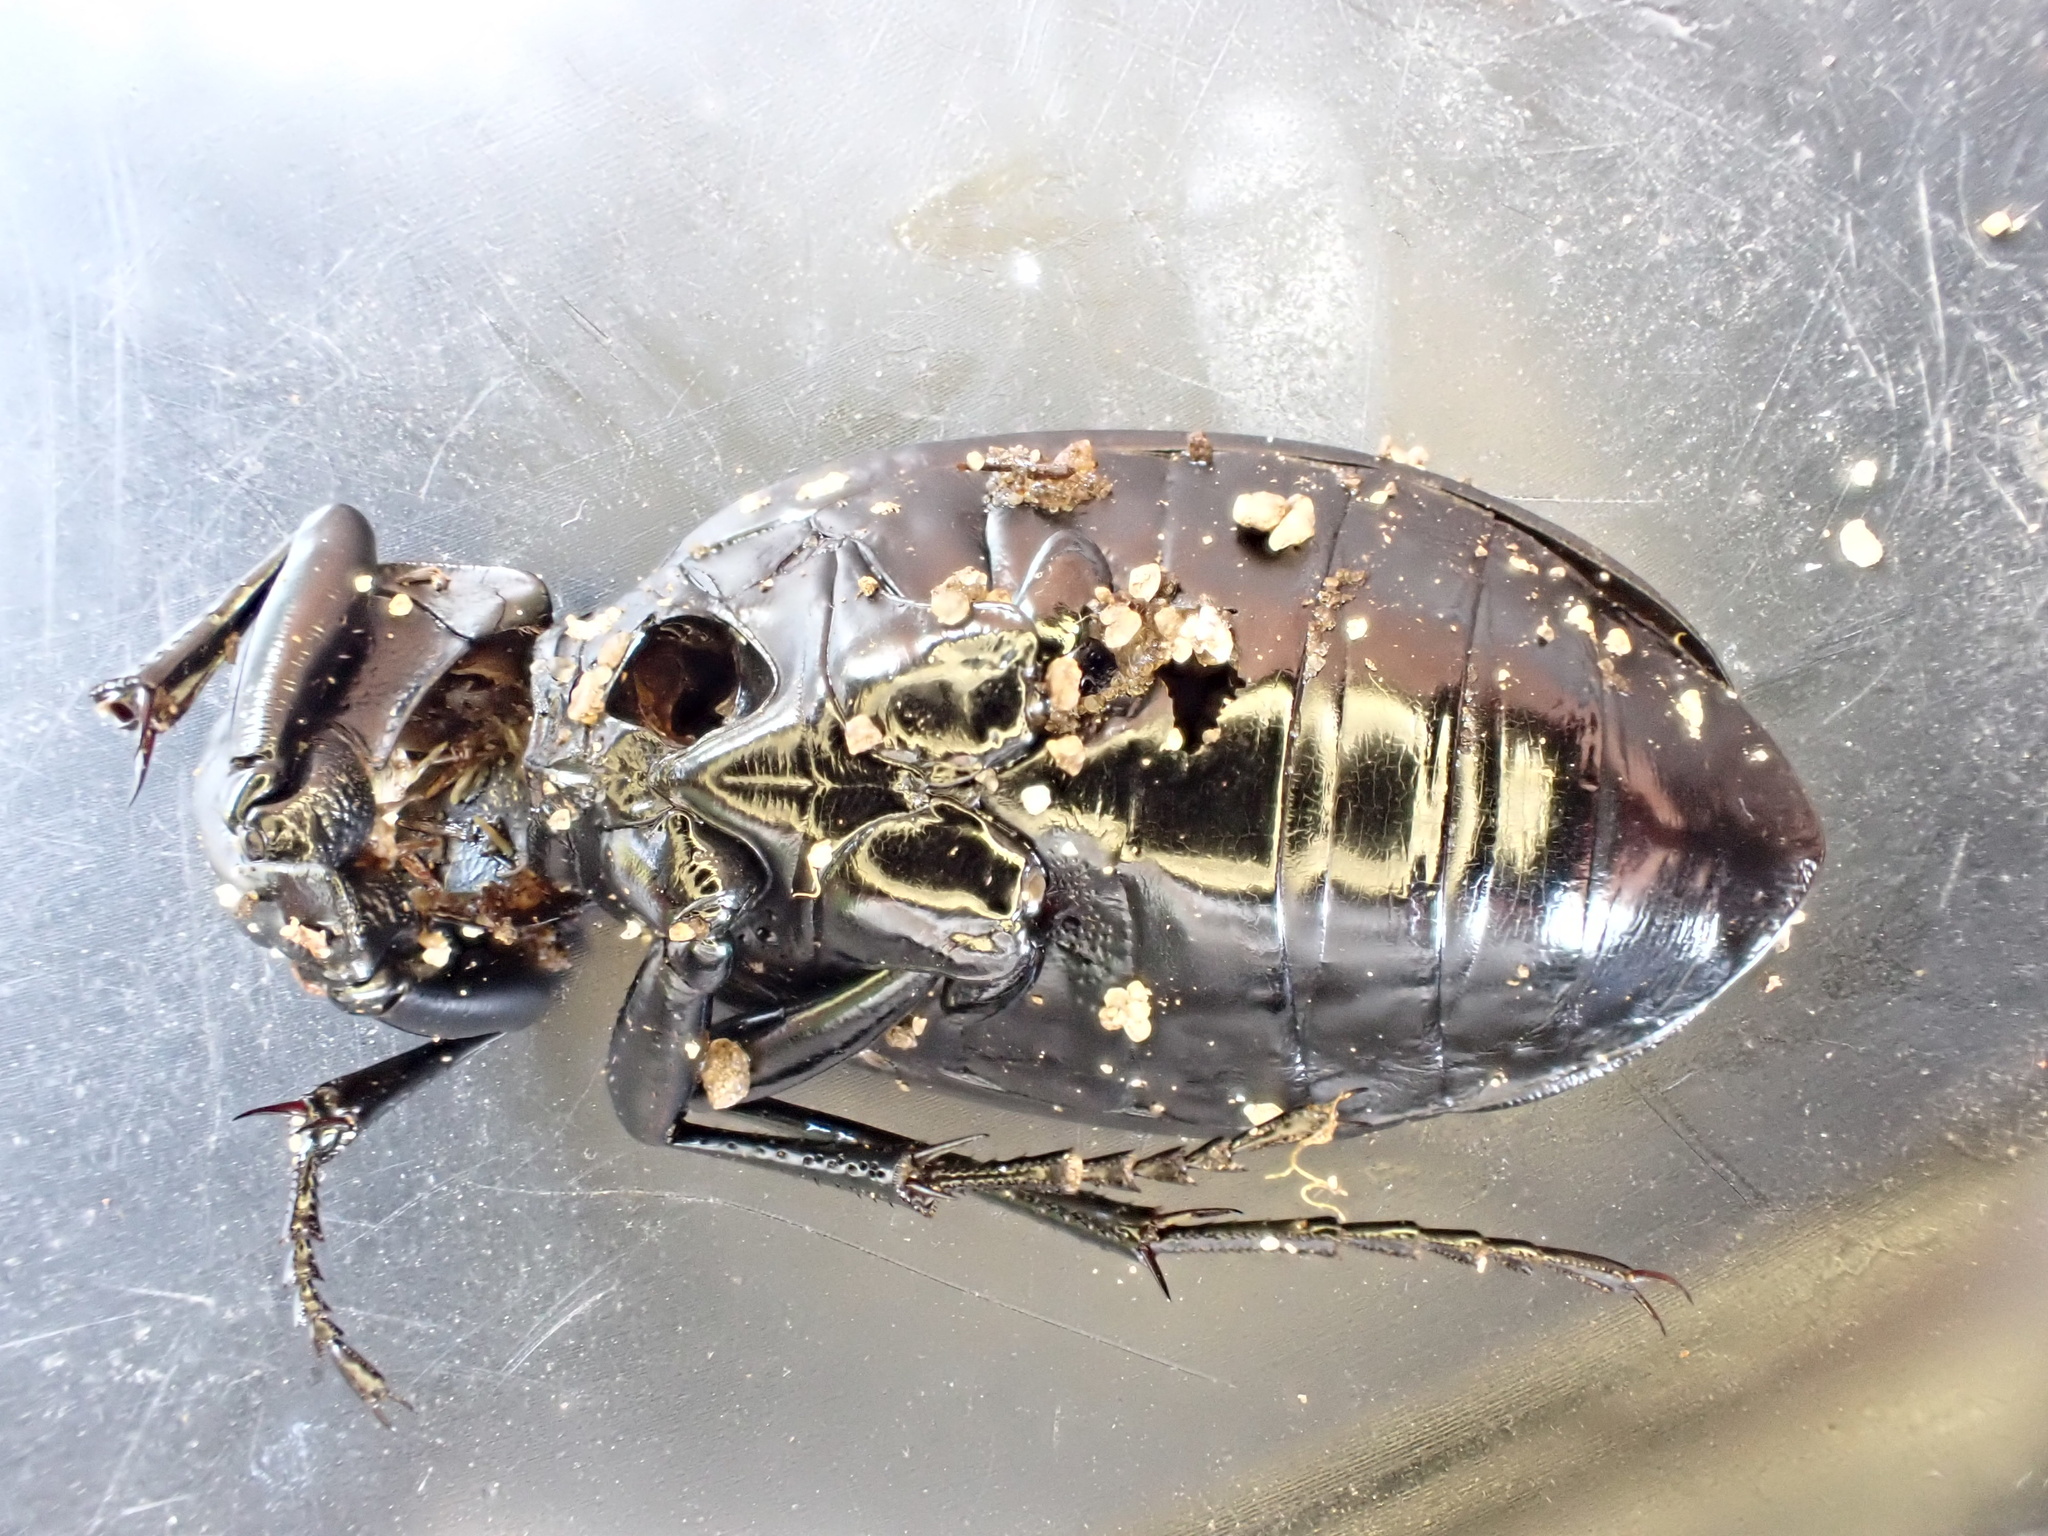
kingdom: Animalia
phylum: Arthropoda
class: Insecta
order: Coleoptera
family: Carabidae
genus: Carabus
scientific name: Carabus coriaceus
